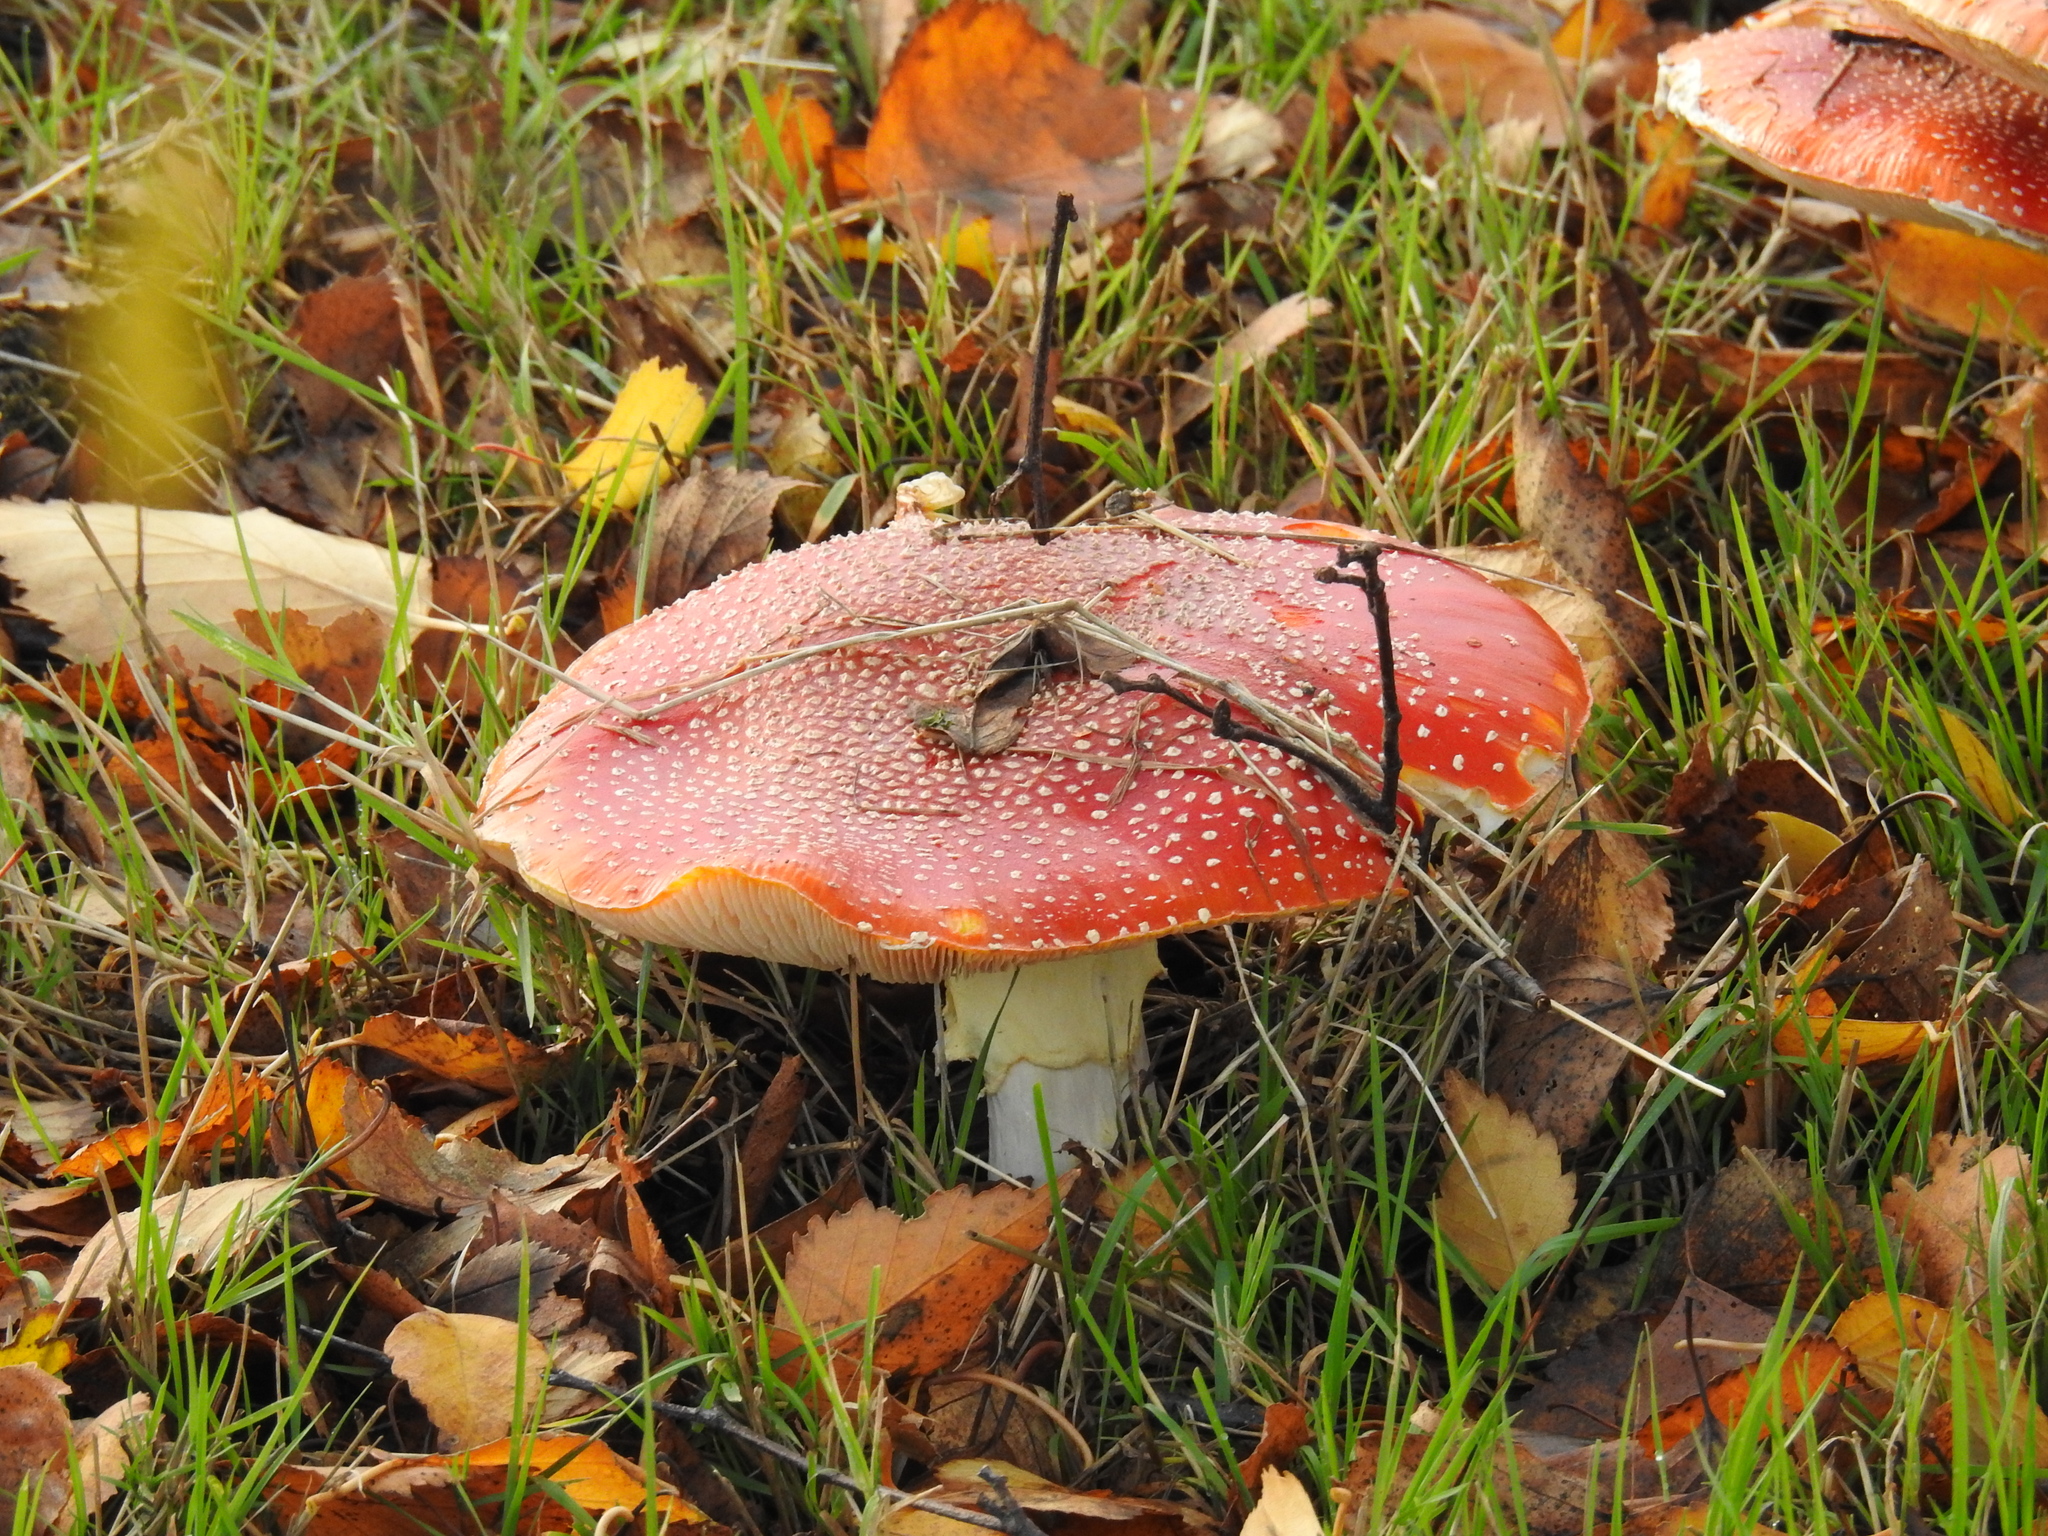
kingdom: Fungi
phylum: Basidiomycota
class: Agaricomycetes
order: Agaricales
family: Amanitaceae
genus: Amanita
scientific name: Amanita muscaria
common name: Fly agaric
